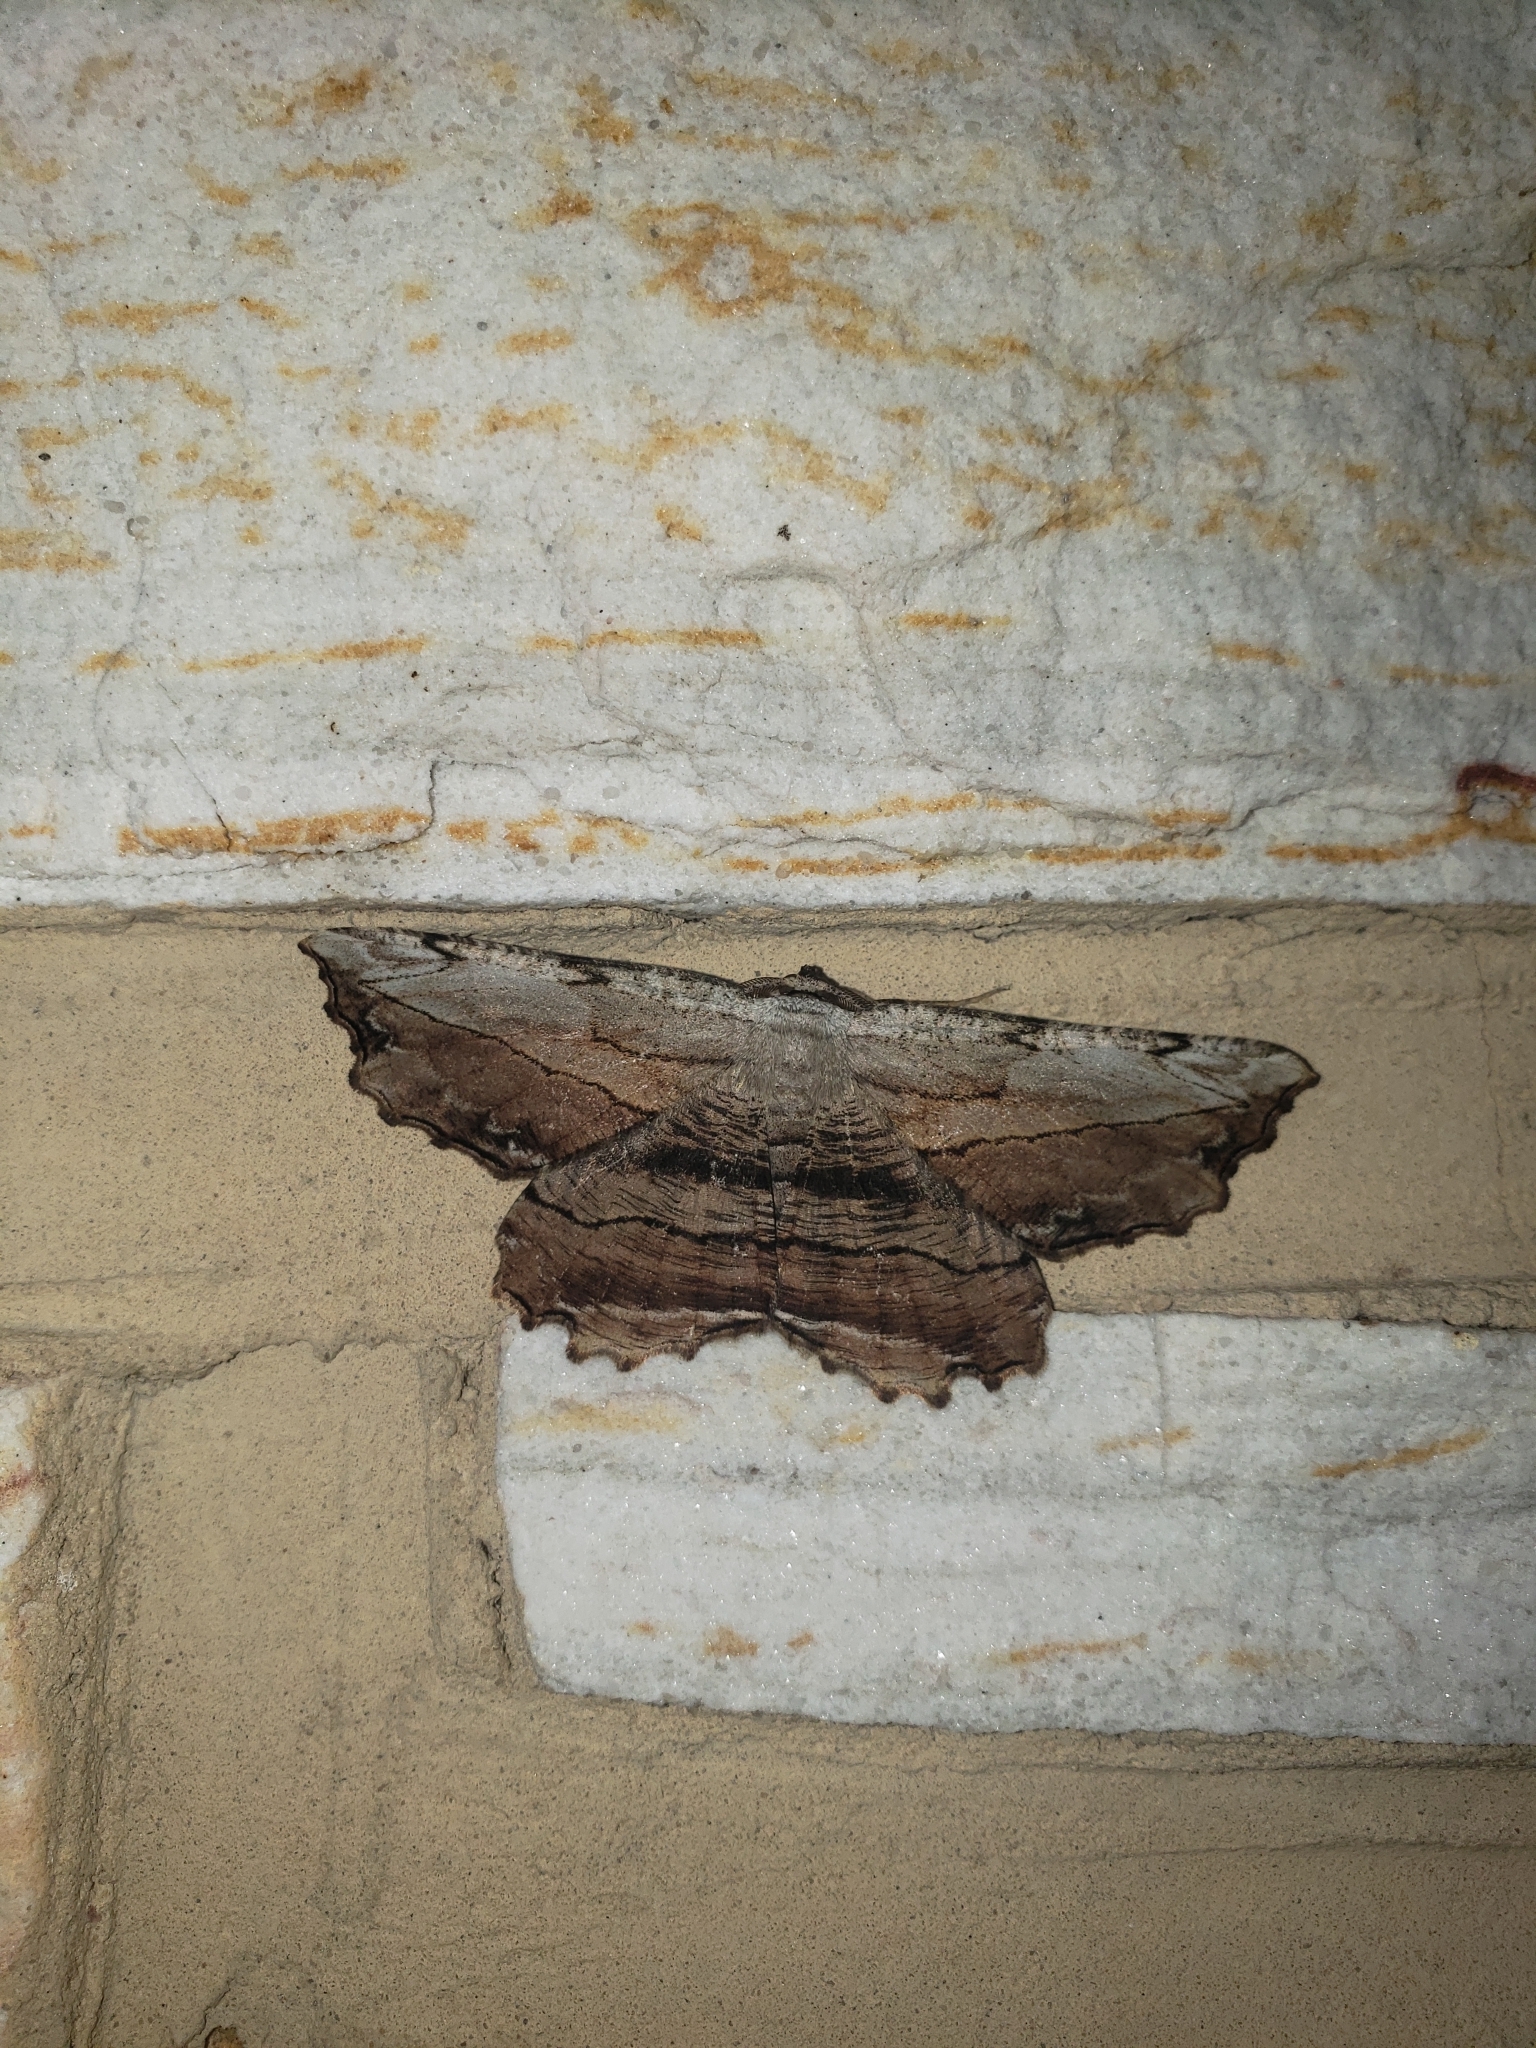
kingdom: Animalia
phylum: Arthropoda
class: Insecta
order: Lepidoptera
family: Geometridae
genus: Lytrosis
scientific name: Lytrosis unitaria
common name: Common lytrosis
